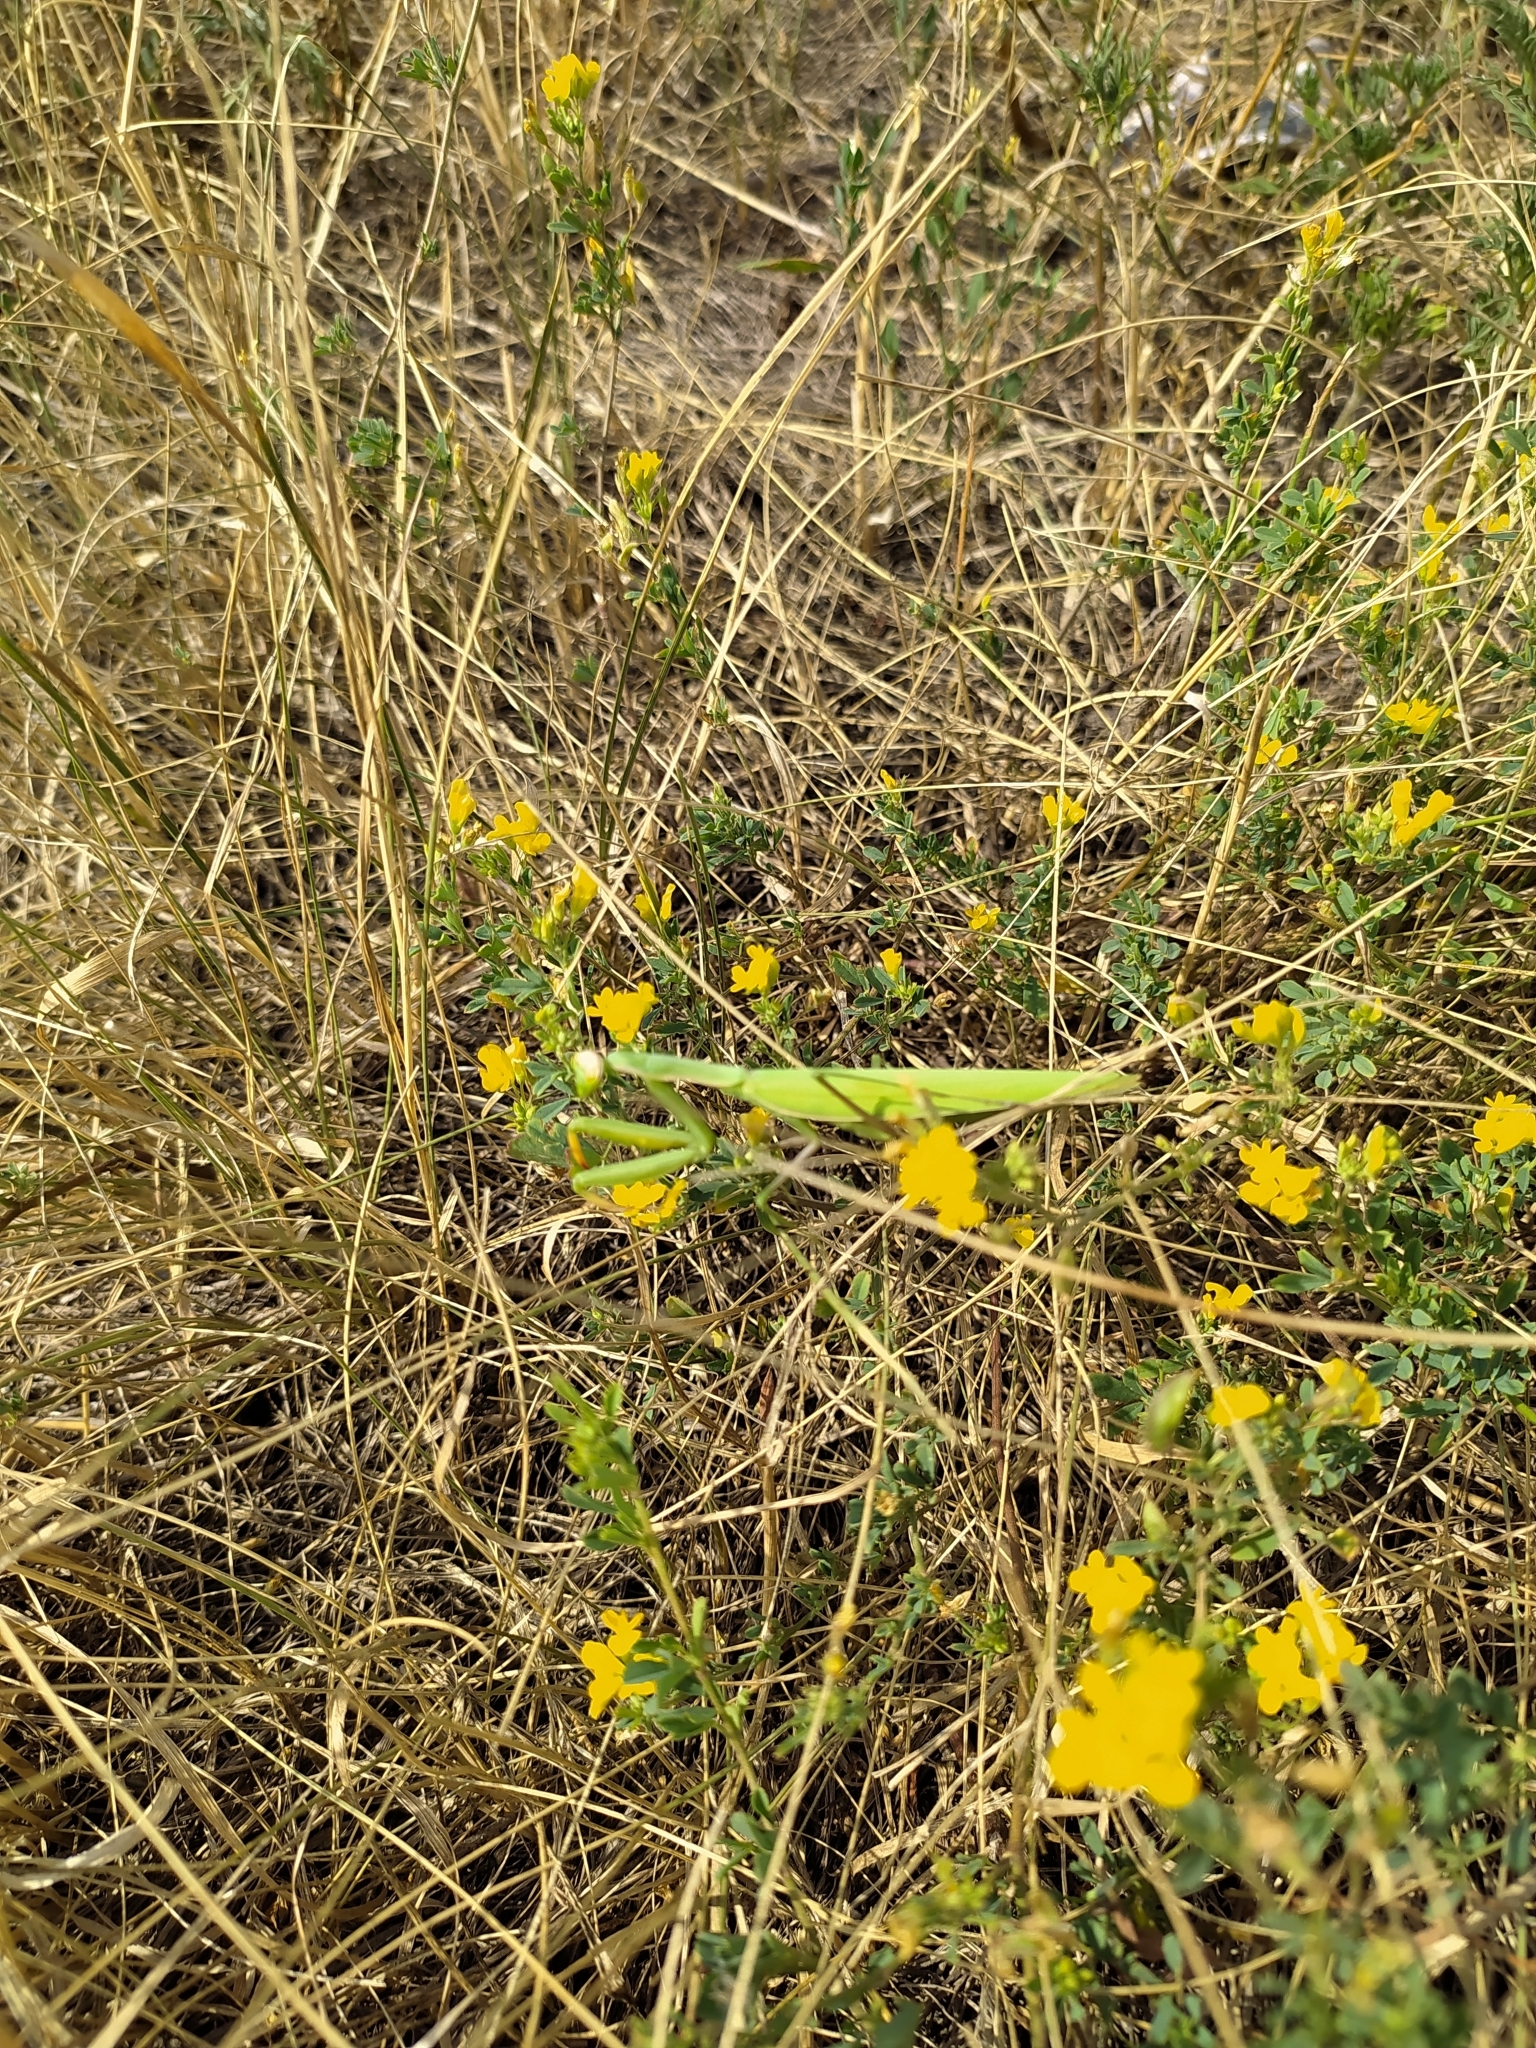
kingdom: Animalia
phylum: Arthropoda
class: Insecta
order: Mantodea
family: Mantidae
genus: Mantis
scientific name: Mantis religiosa
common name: Praying mantis
